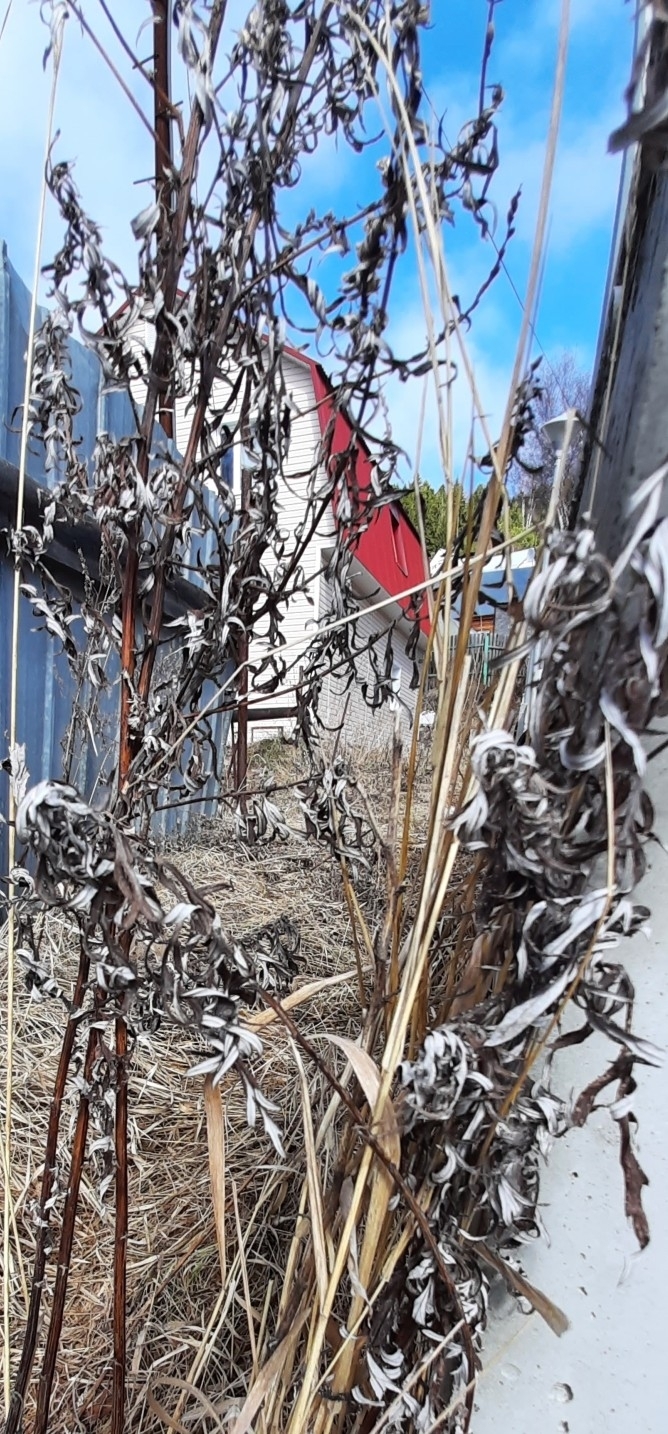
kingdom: Plantae
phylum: Tracheophyta
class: Magnoliopsida
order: Asterales
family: Asteraceae
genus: Artemisia
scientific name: Artemisia vulgaris
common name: Mugwort
